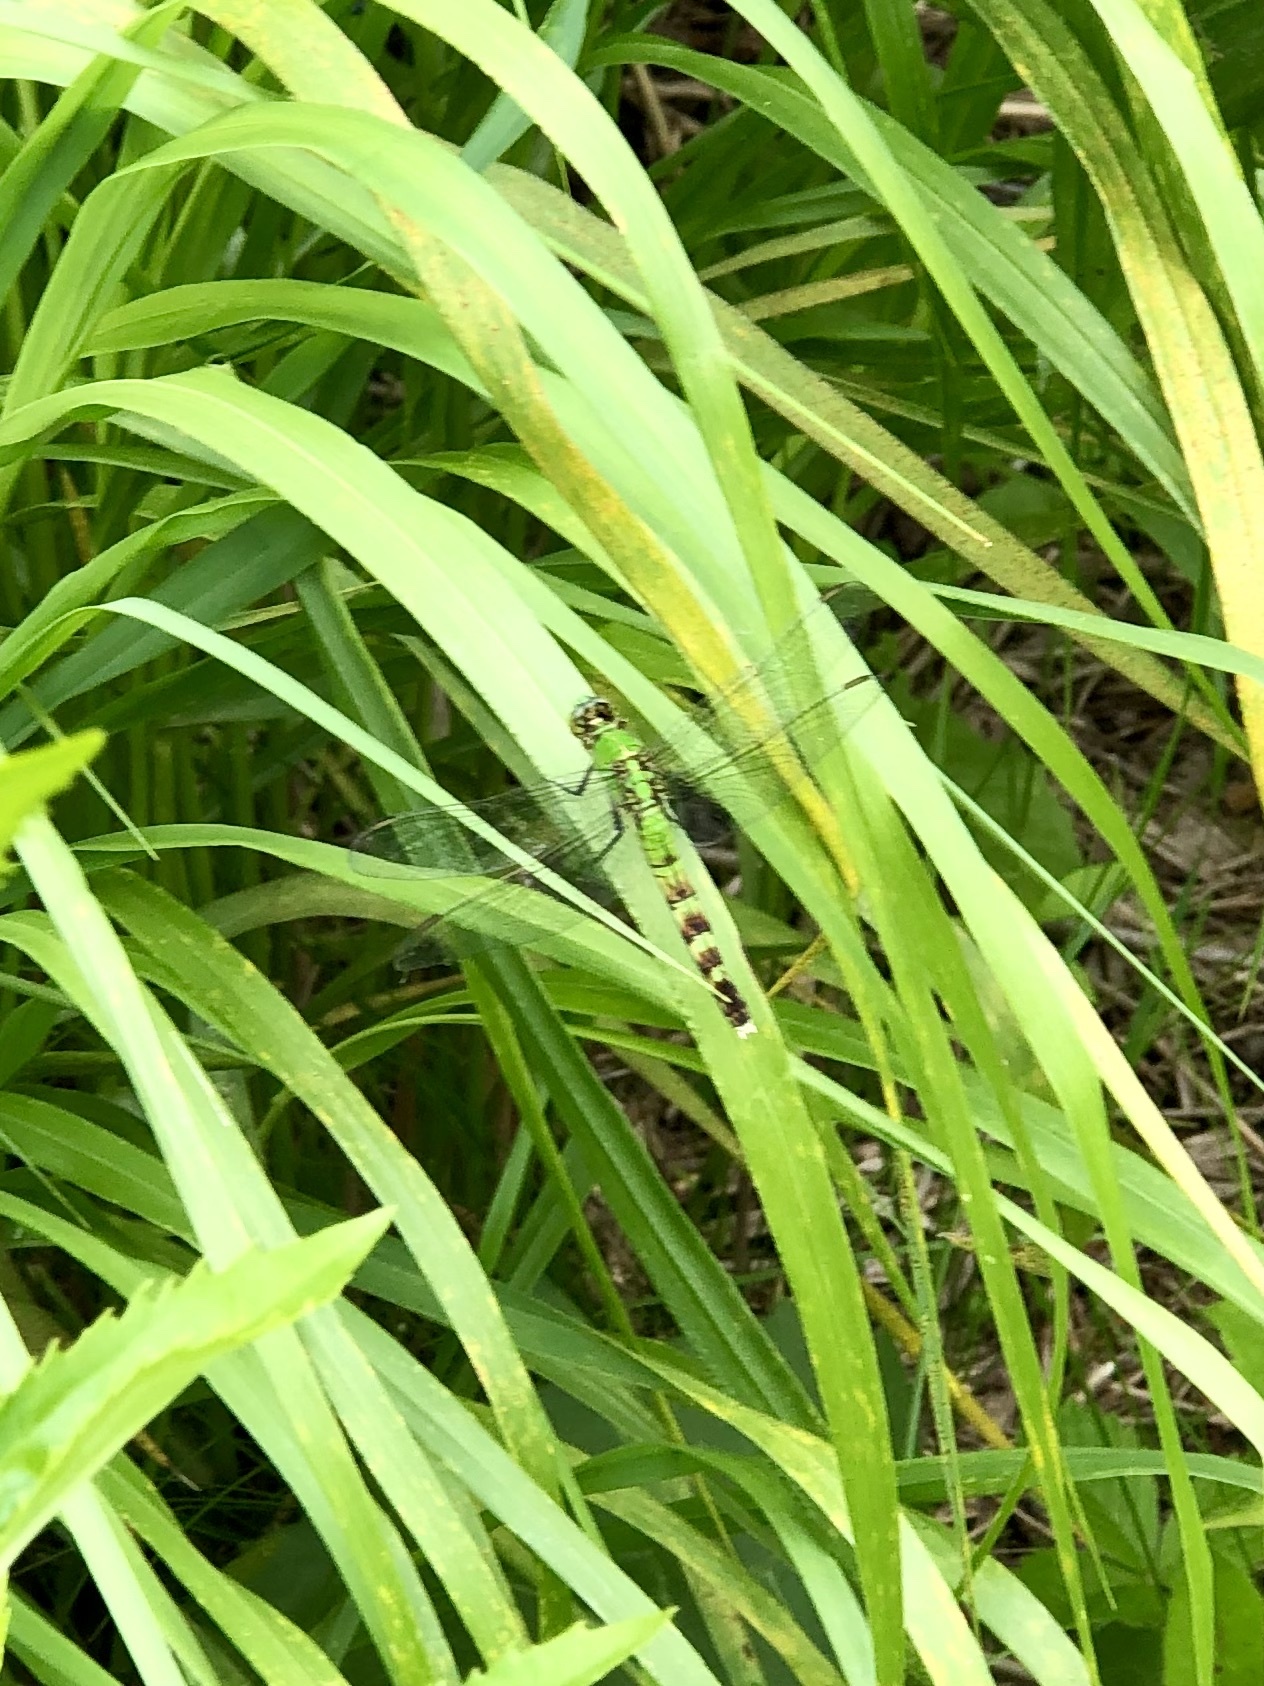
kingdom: Animalia
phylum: Arthropoda
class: Insecta
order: Odonata
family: Libellulidae
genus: Erythemis
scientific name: Erythemis simplicicollis
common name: Eastern pondhawk
